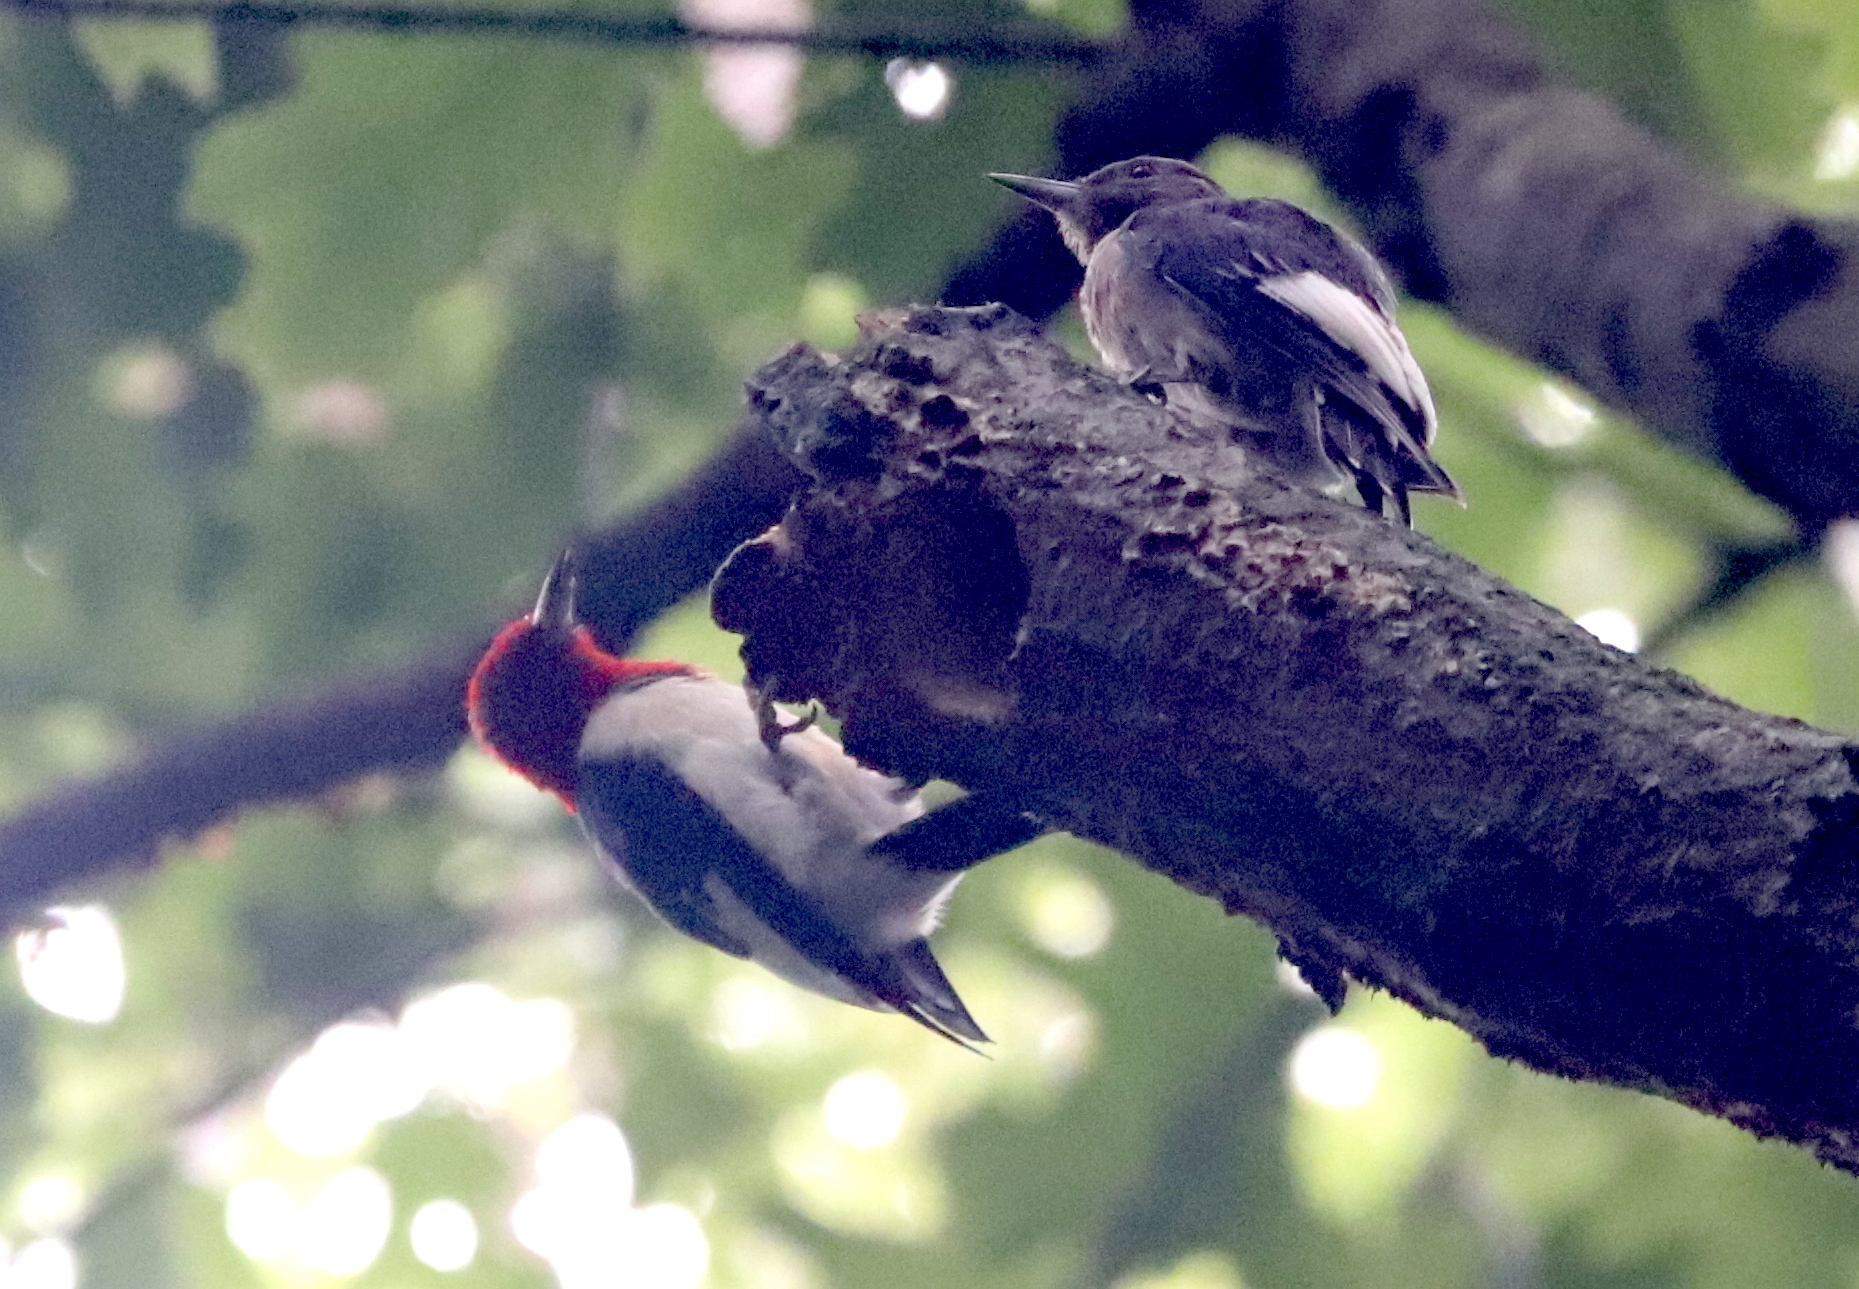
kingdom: Animalia
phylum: Chordata
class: Aves
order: Piciformes
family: Picidae
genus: Melanerpes
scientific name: Melanerpes erythrocephalus
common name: Red-headed woodpecker
